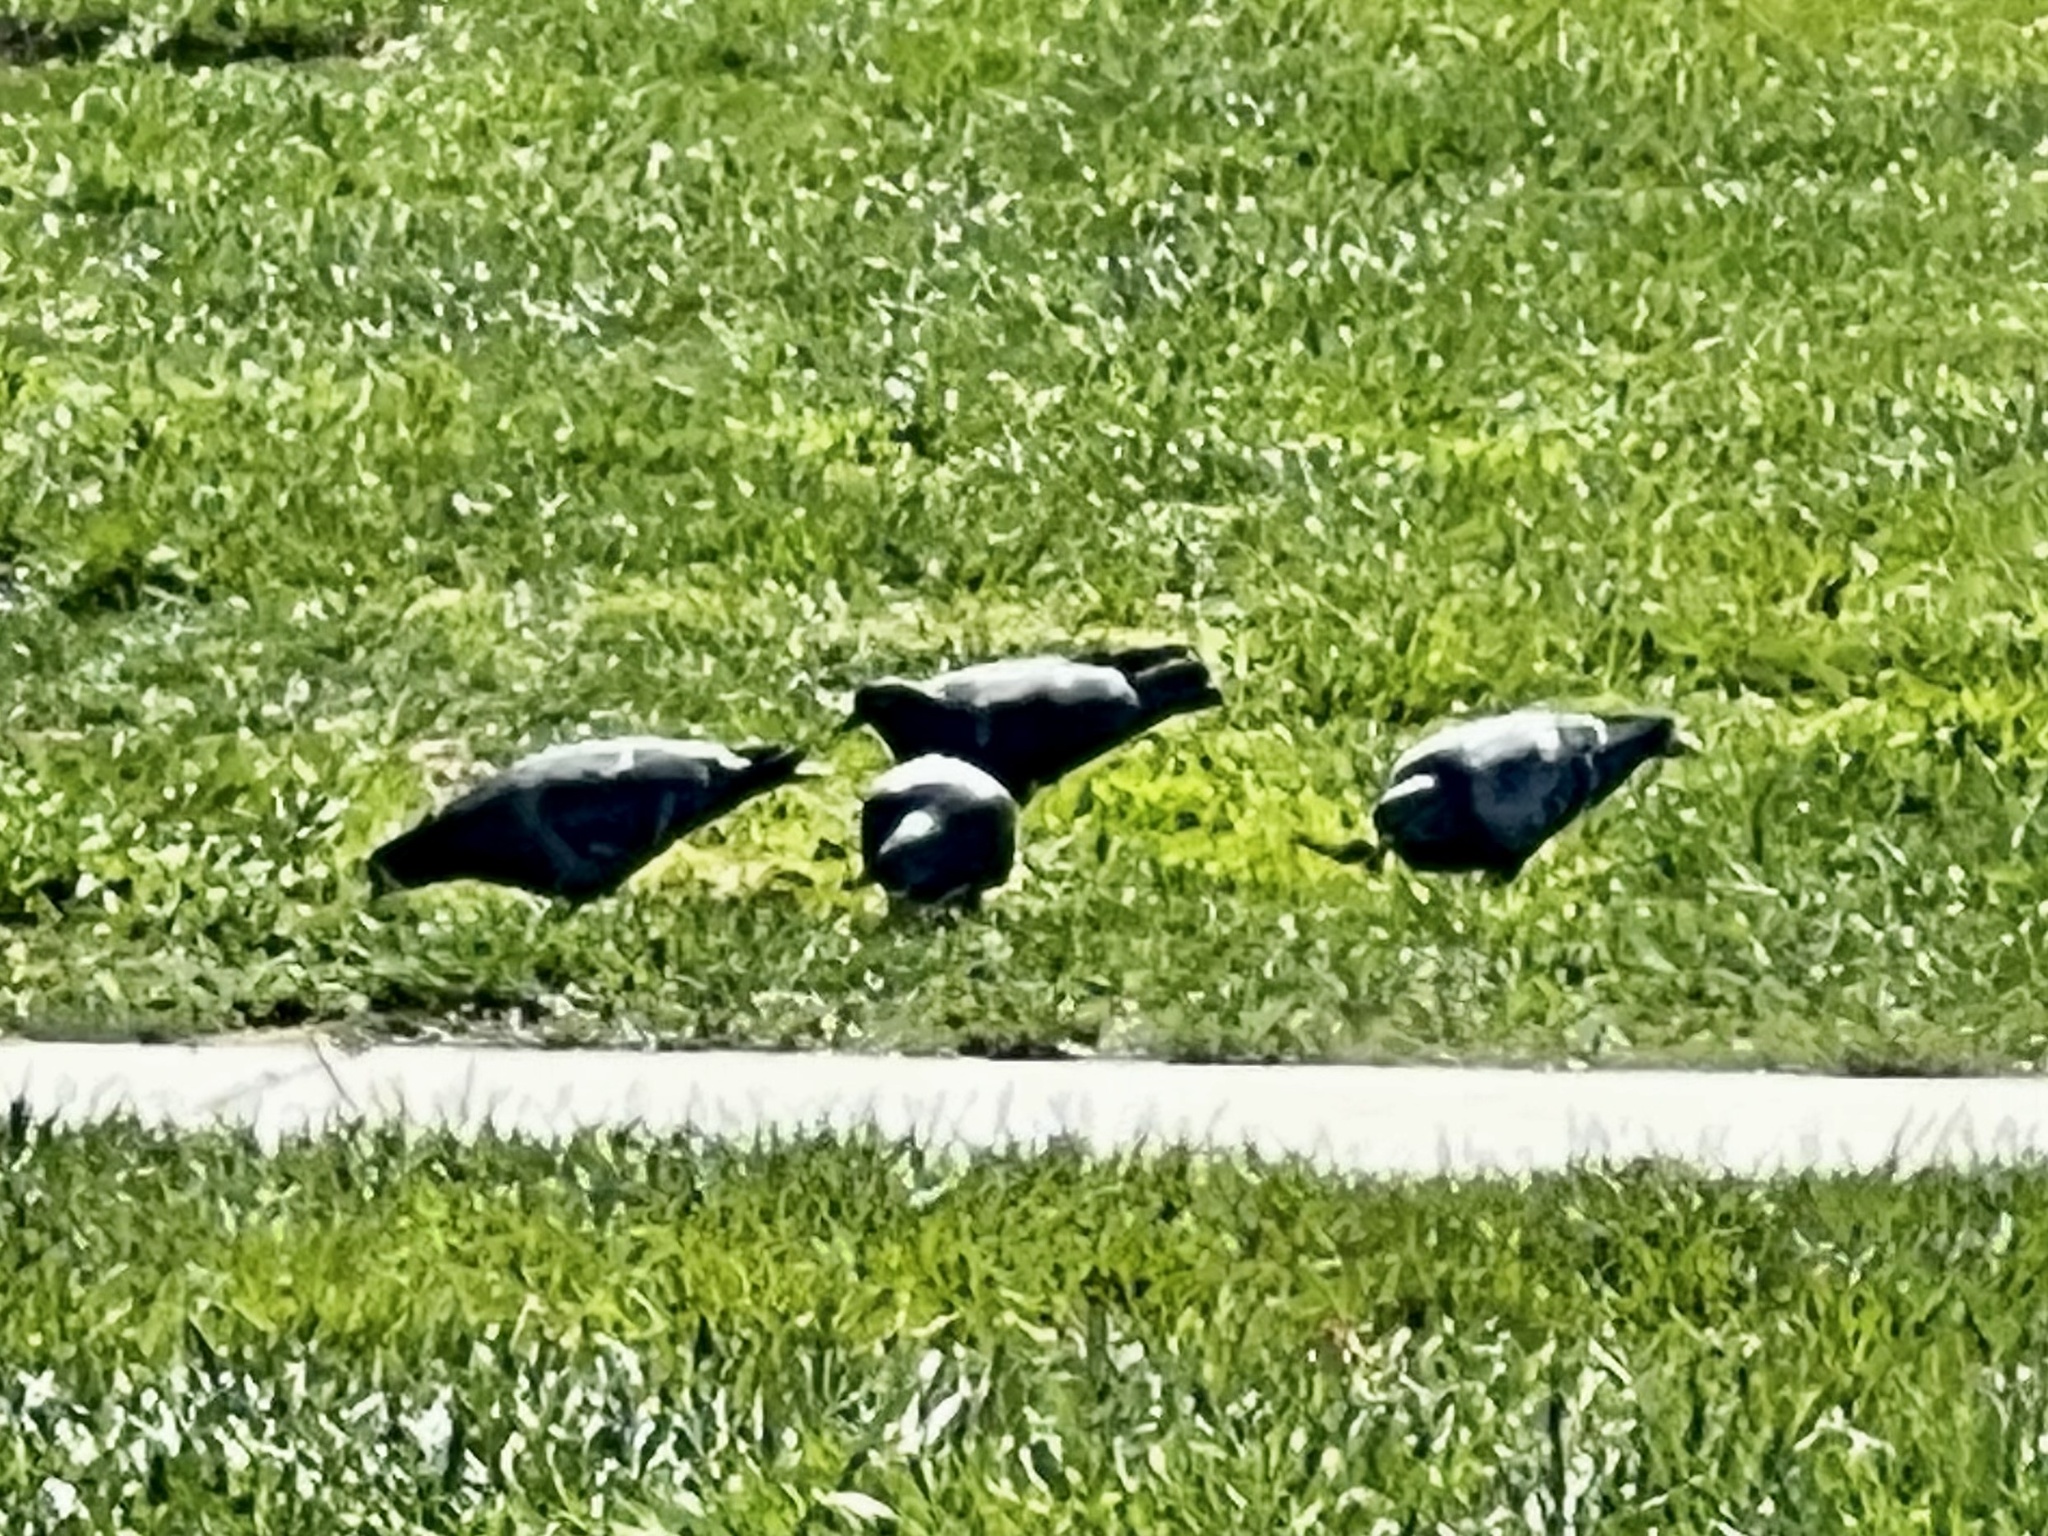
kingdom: Animalia
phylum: Chordata
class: Aves
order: Columbiformes
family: Columbidae
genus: Columba
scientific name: Columba livia
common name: Rock pigeon
